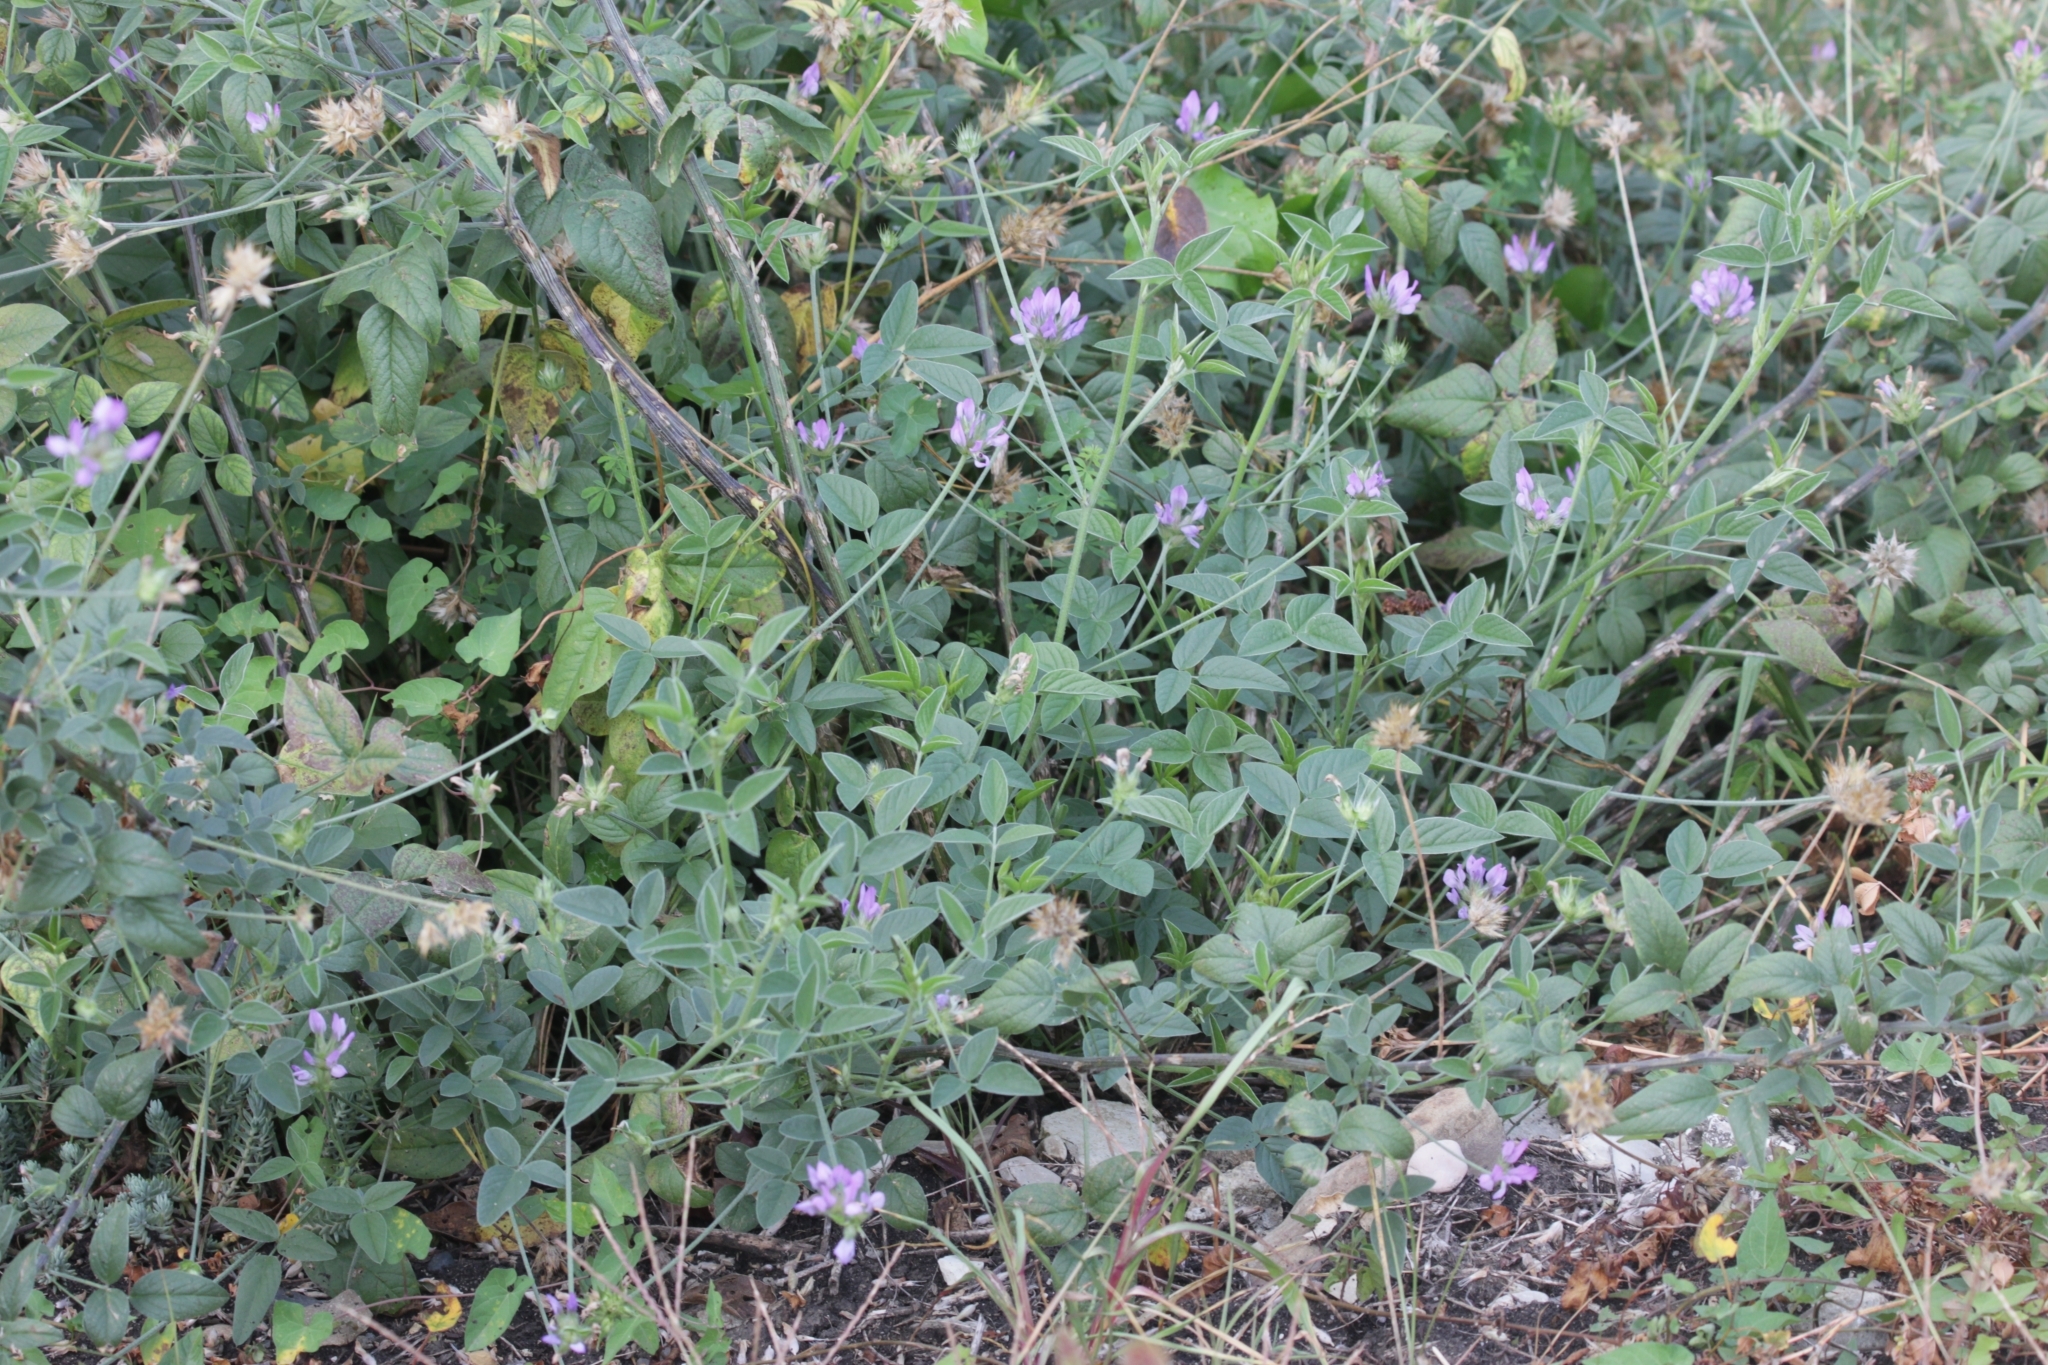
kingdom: Plantae
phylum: Tracheophyta
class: Magnoliopsida
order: Fabales
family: Fabaceae
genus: Bituminaria
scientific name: Bituminaria bituminosa
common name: Arabian pea
